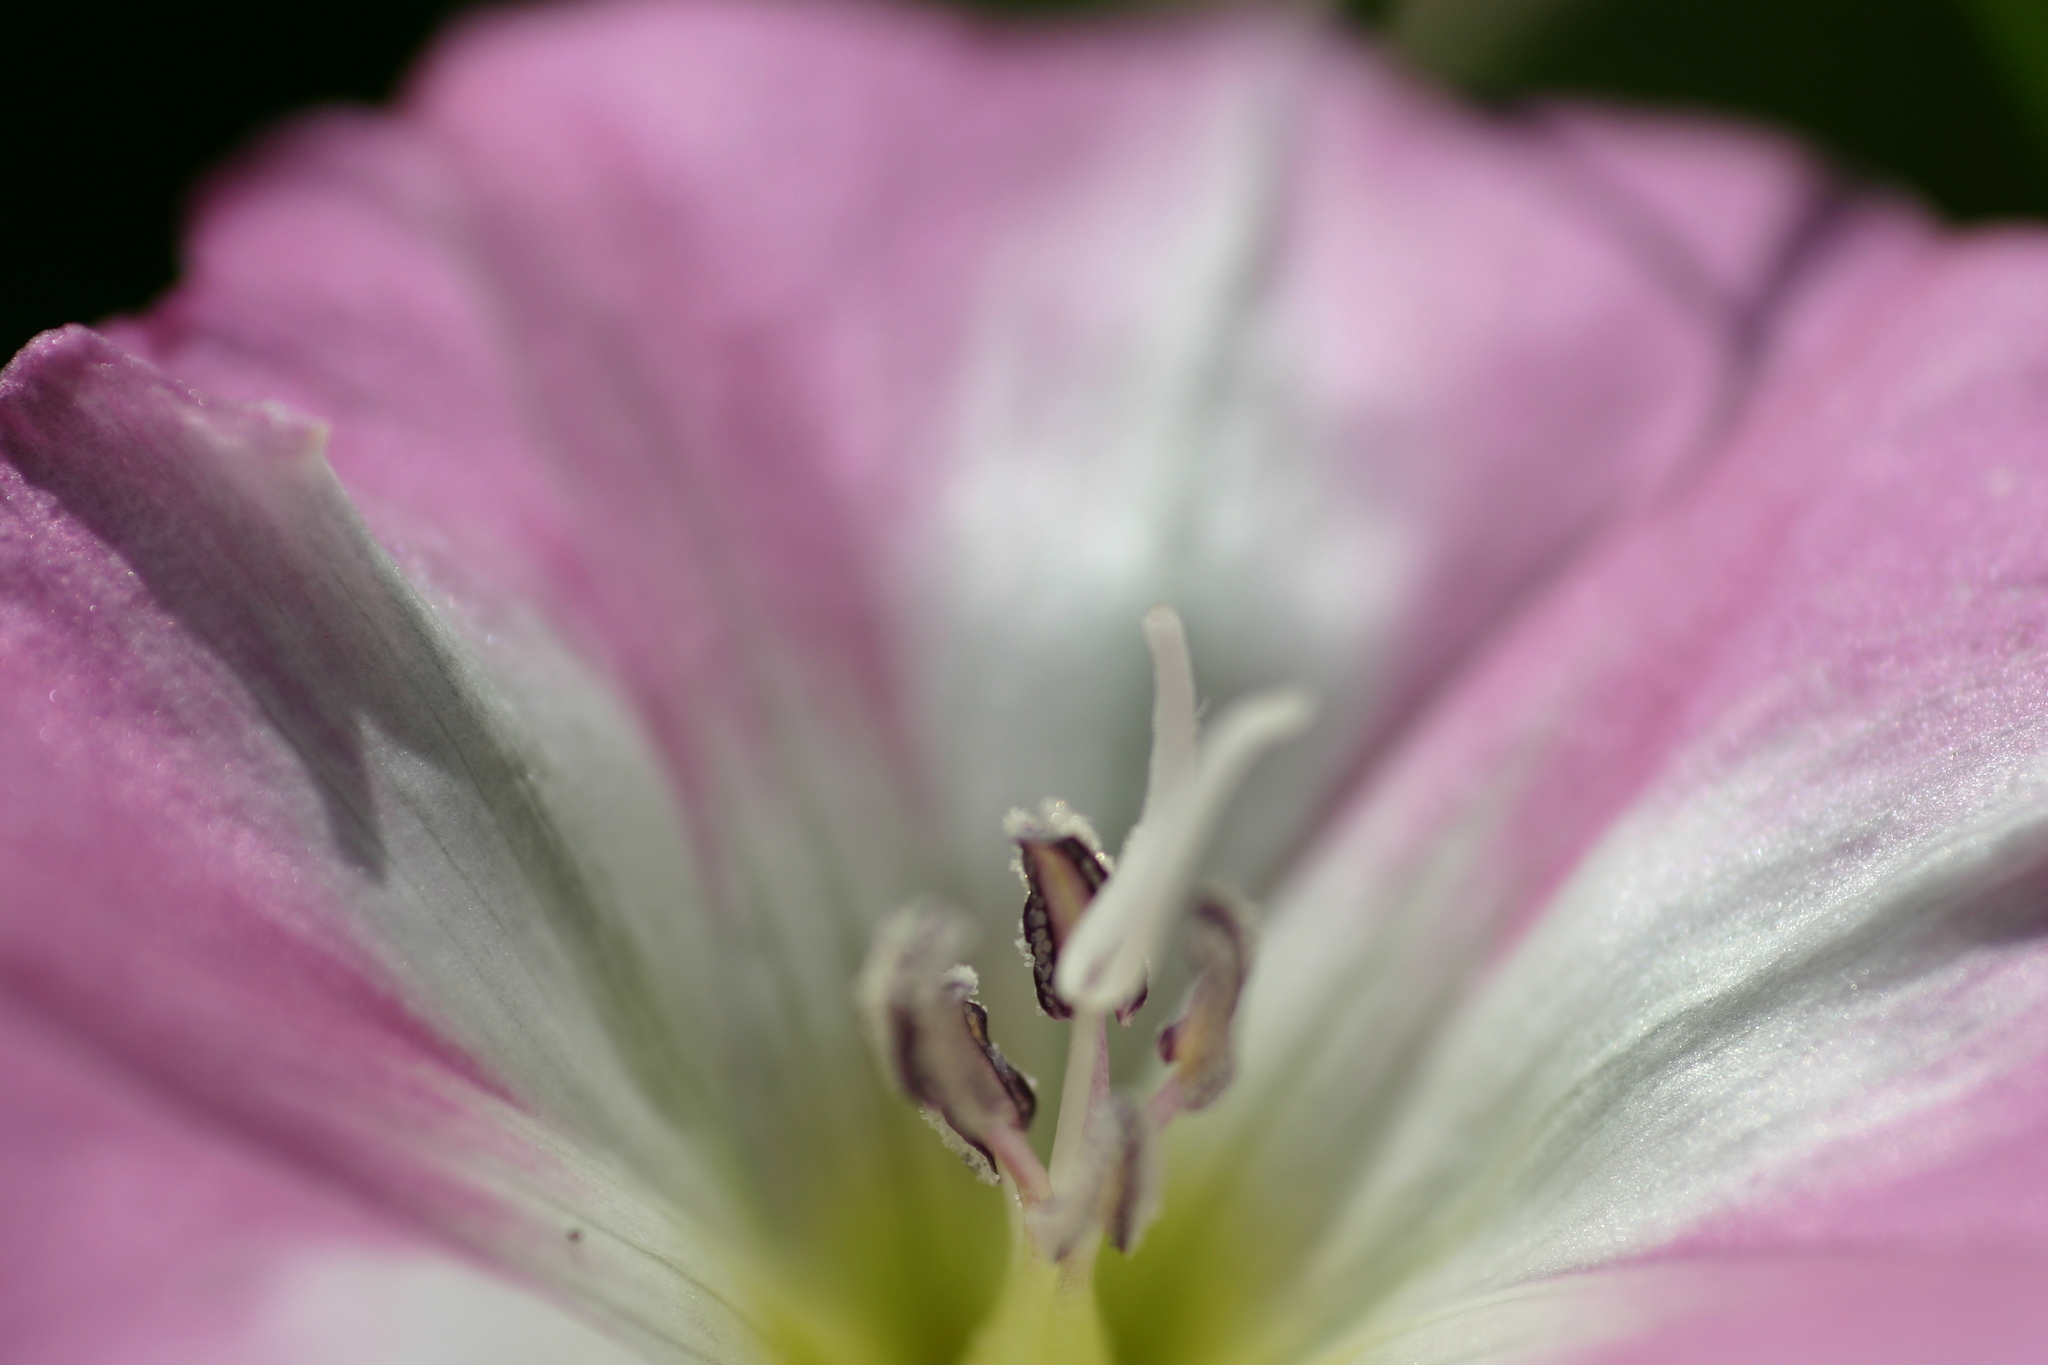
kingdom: Plantae
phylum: Tracheophyta
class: Magnoliopsida
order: Solanales
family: Convolvulaceae
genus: Convolvulus
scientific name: Convolvulus arvensis
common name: Field bindweed
